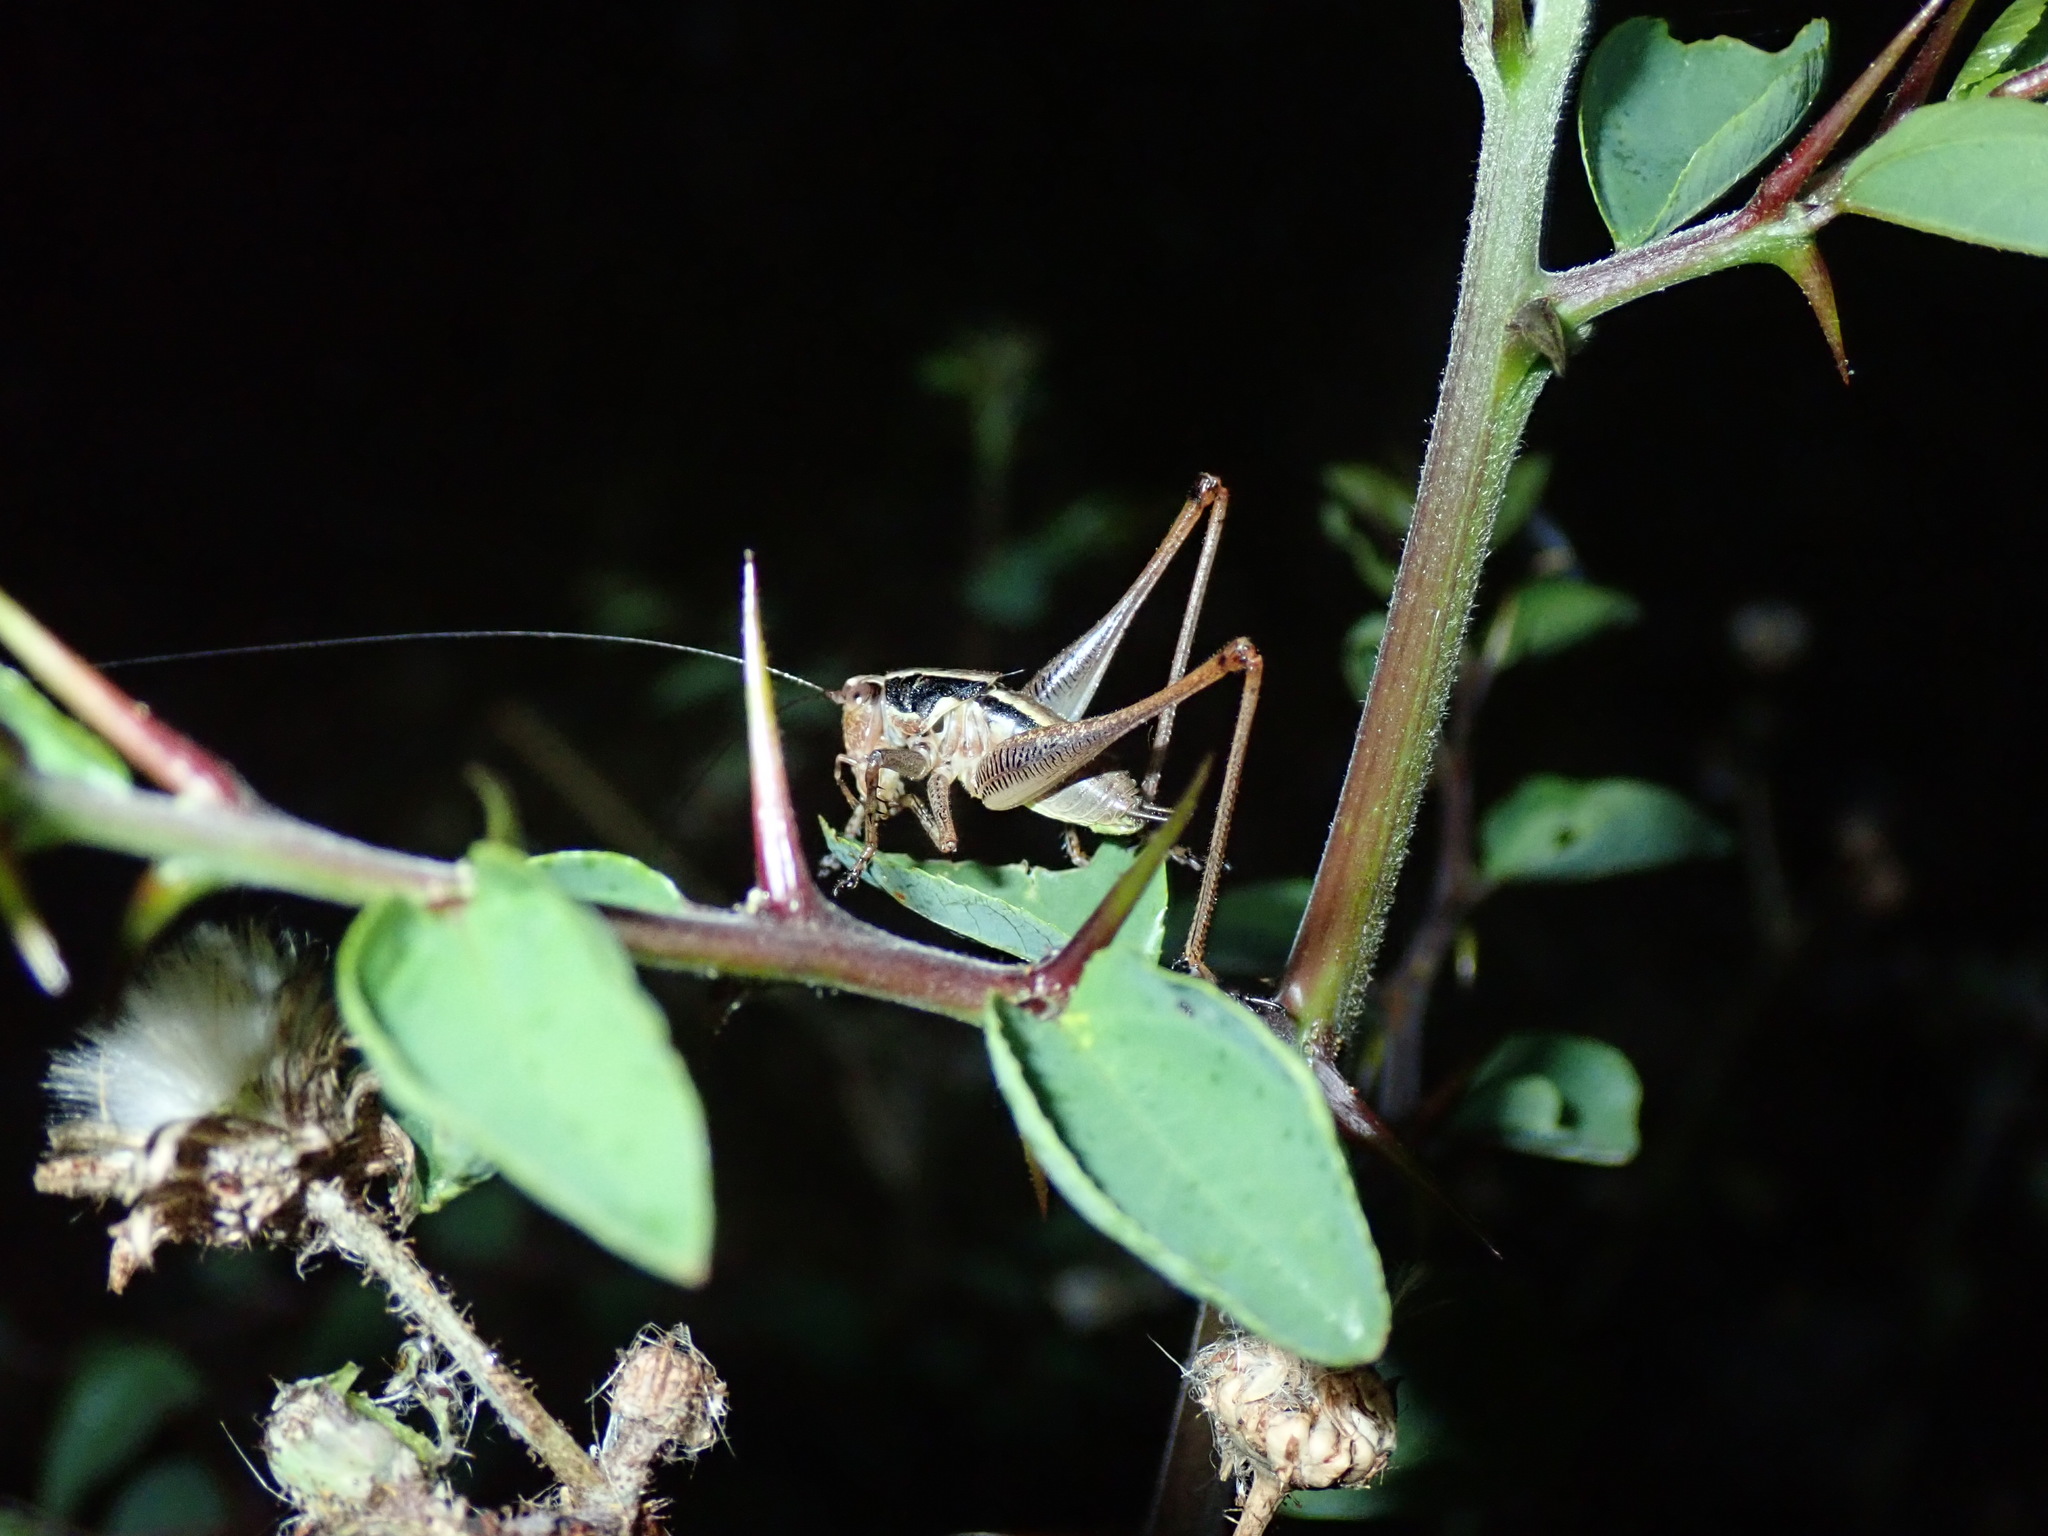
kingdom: Animalia
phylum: Arthropoda
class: Insecta
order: Orthoptera
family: Tettigoniidae
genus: Pachytrachis
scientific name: Pachytrachis striolatus
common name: Striated bush-cricket
